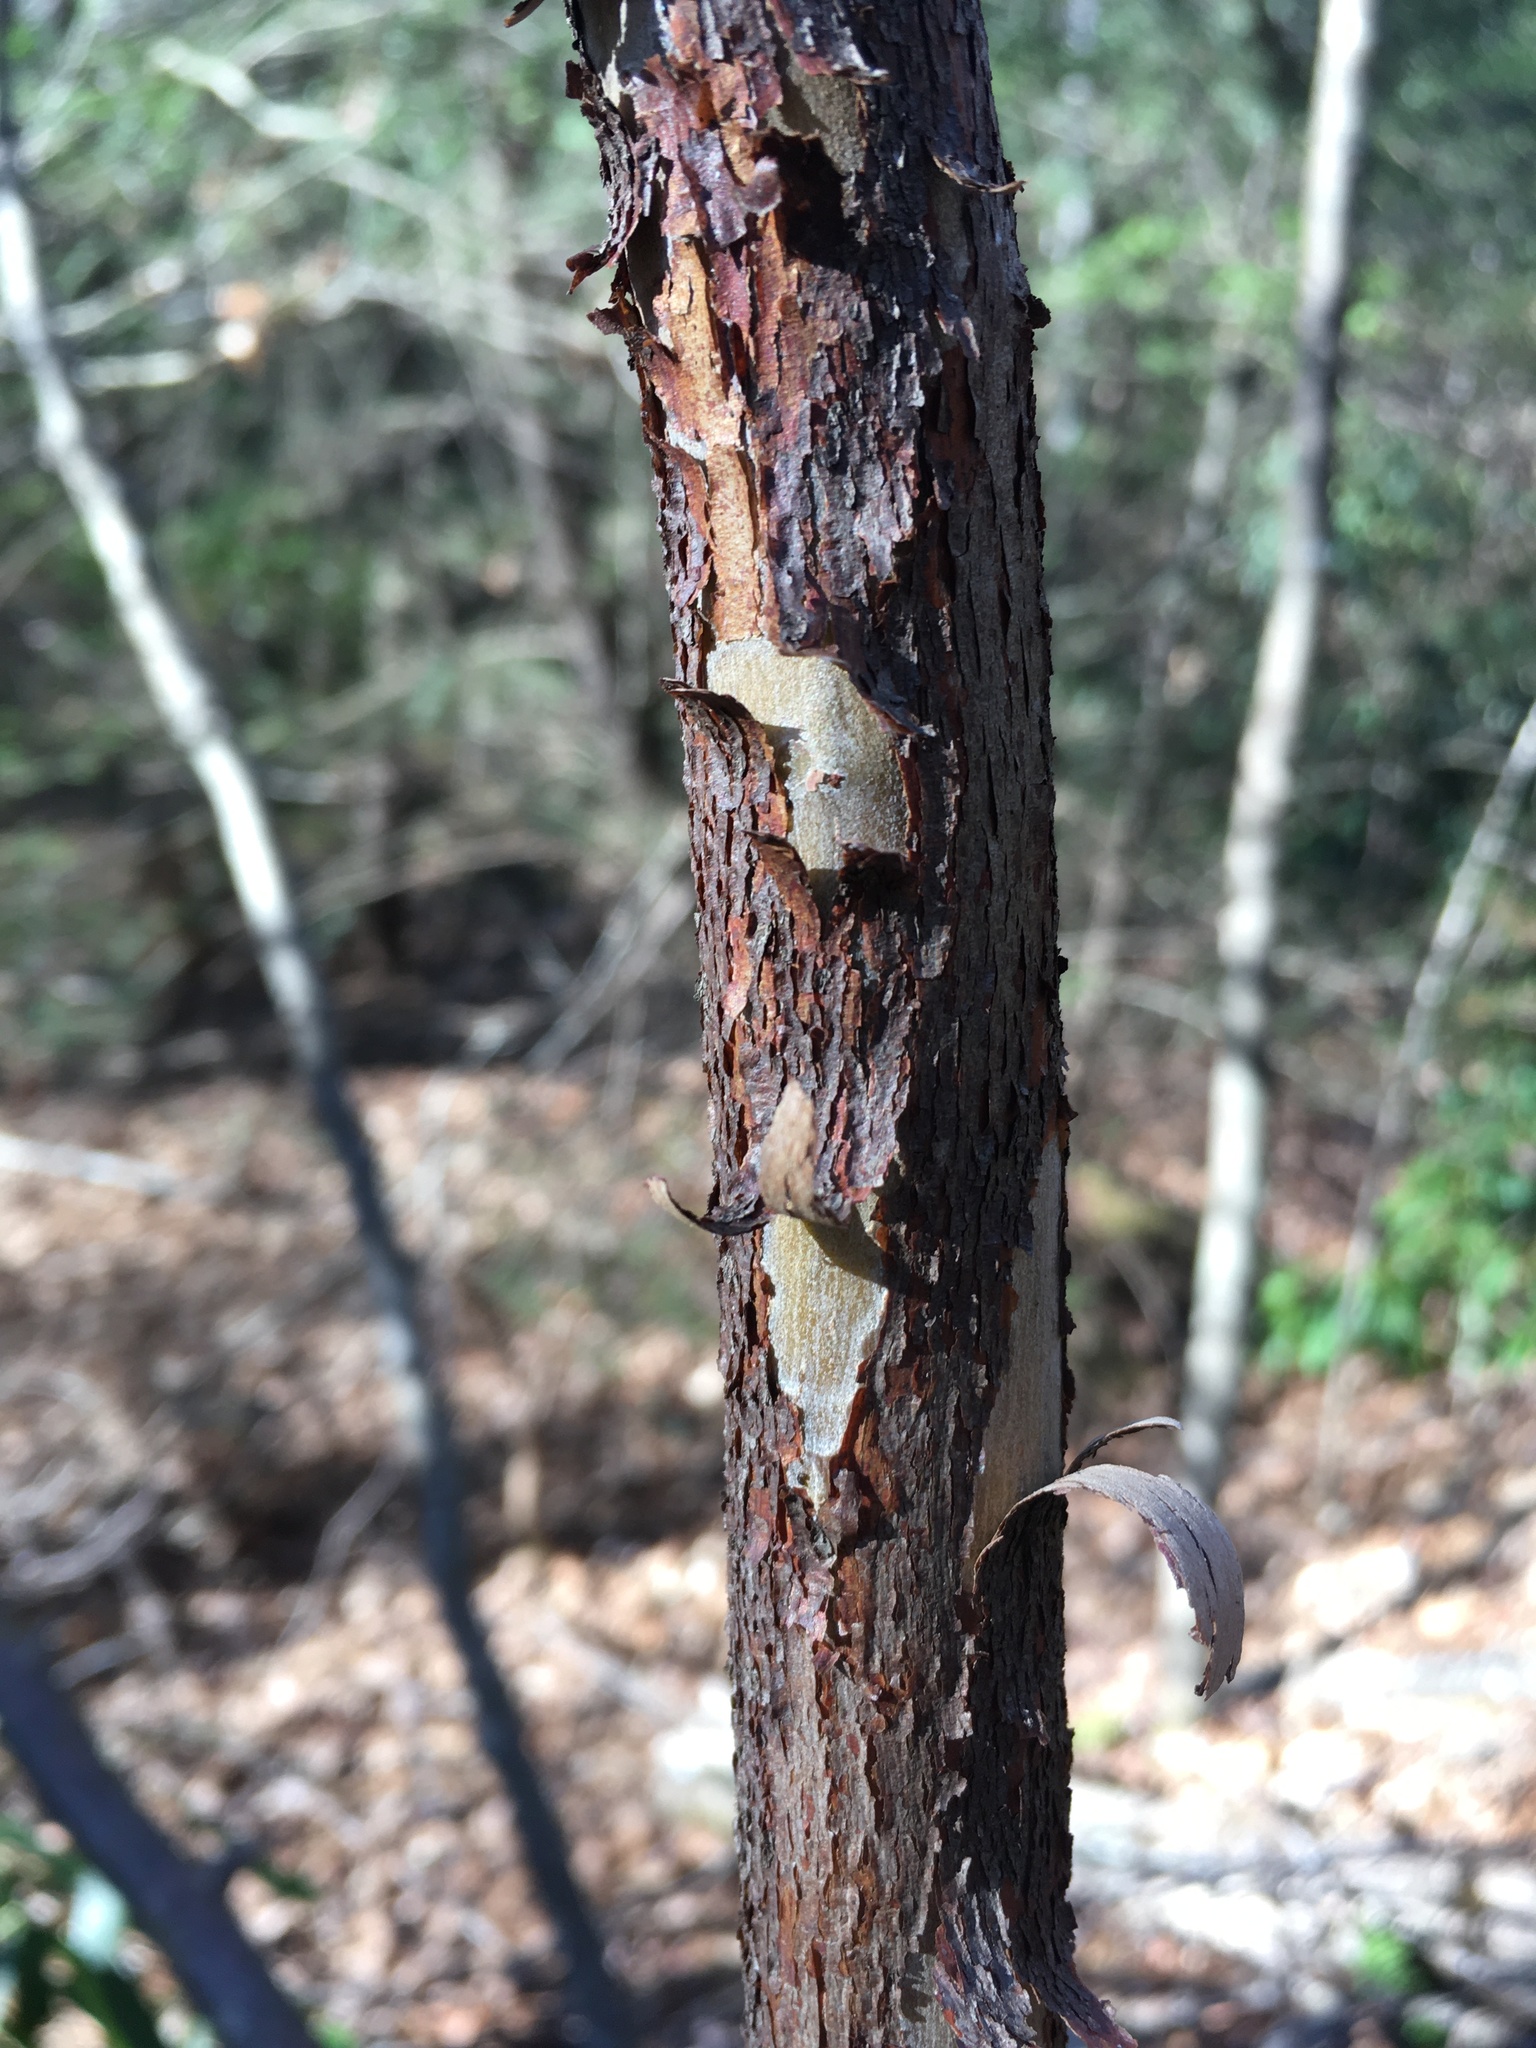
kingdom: Plantae
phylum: Tracheophyta
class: Magnoliopsida
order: Ericales
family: Clethraceae
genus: Clethra
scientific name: Clethra acuminata
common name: Mountain sweet pepperbush
